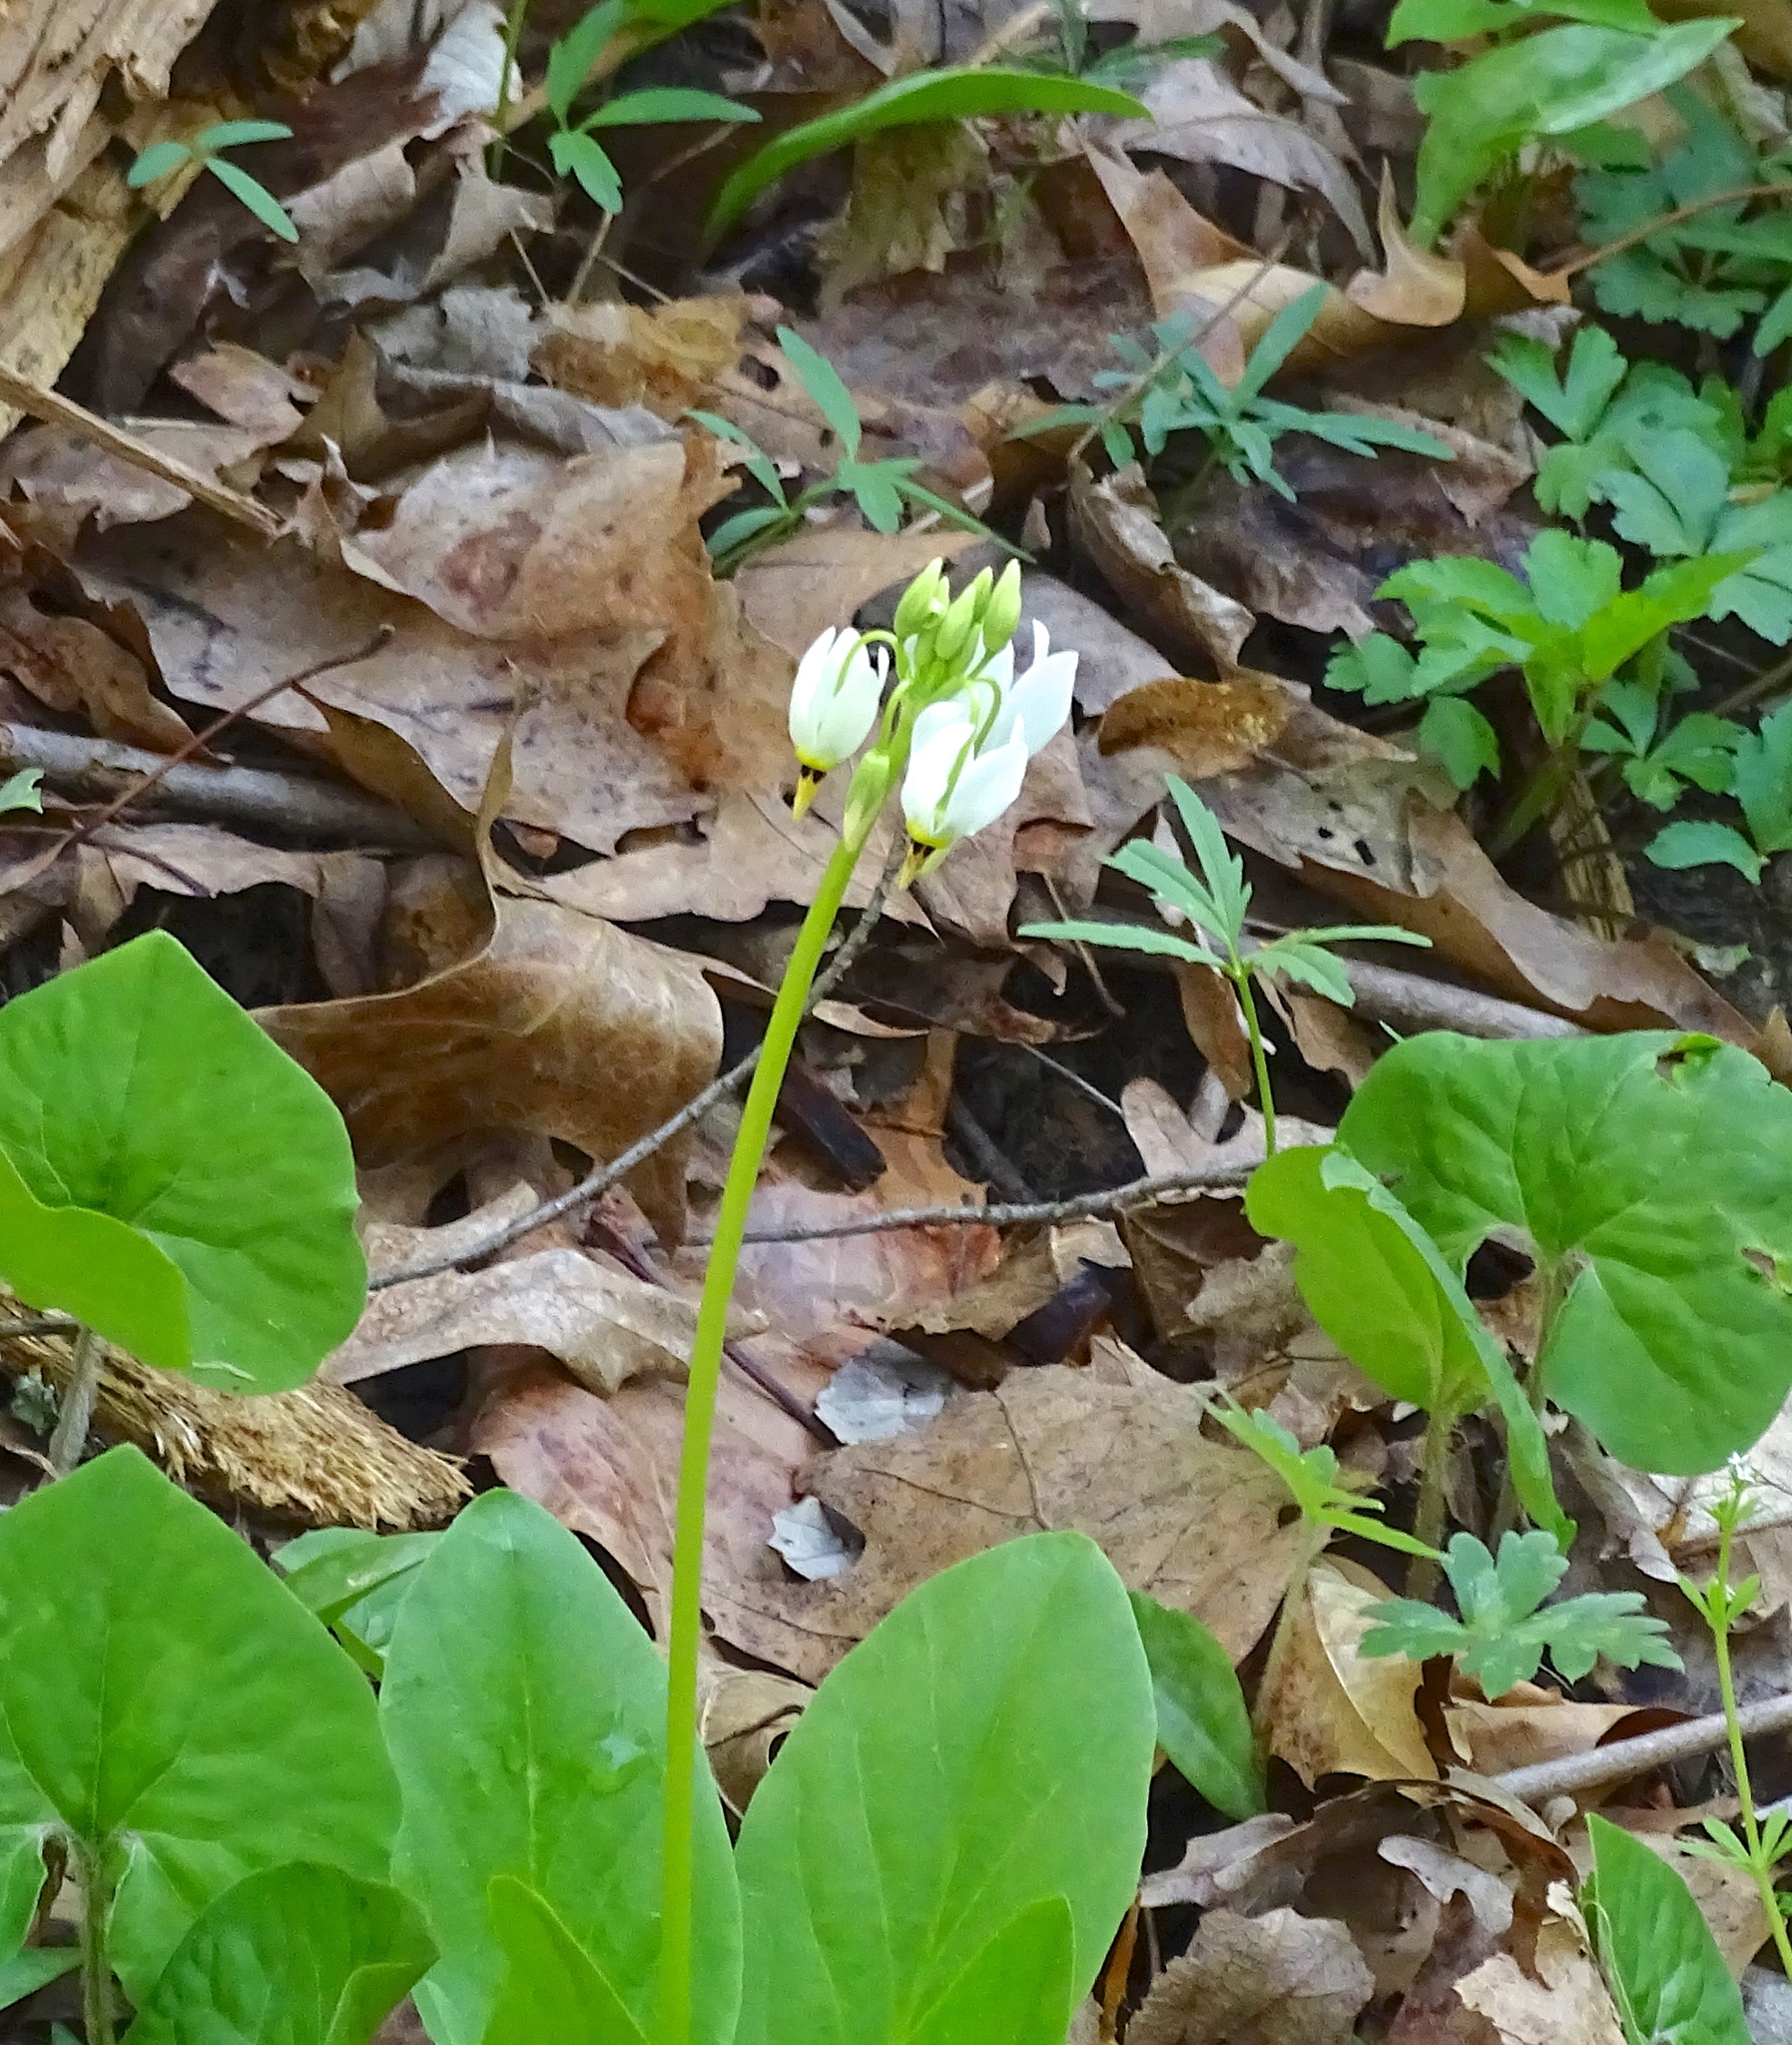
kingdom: Plantae
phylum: Tracheophyta
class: Magnoliopsida
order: Ericales
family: Primulaceae
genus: Dodecatheon
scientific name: Dodecatheon meadia
